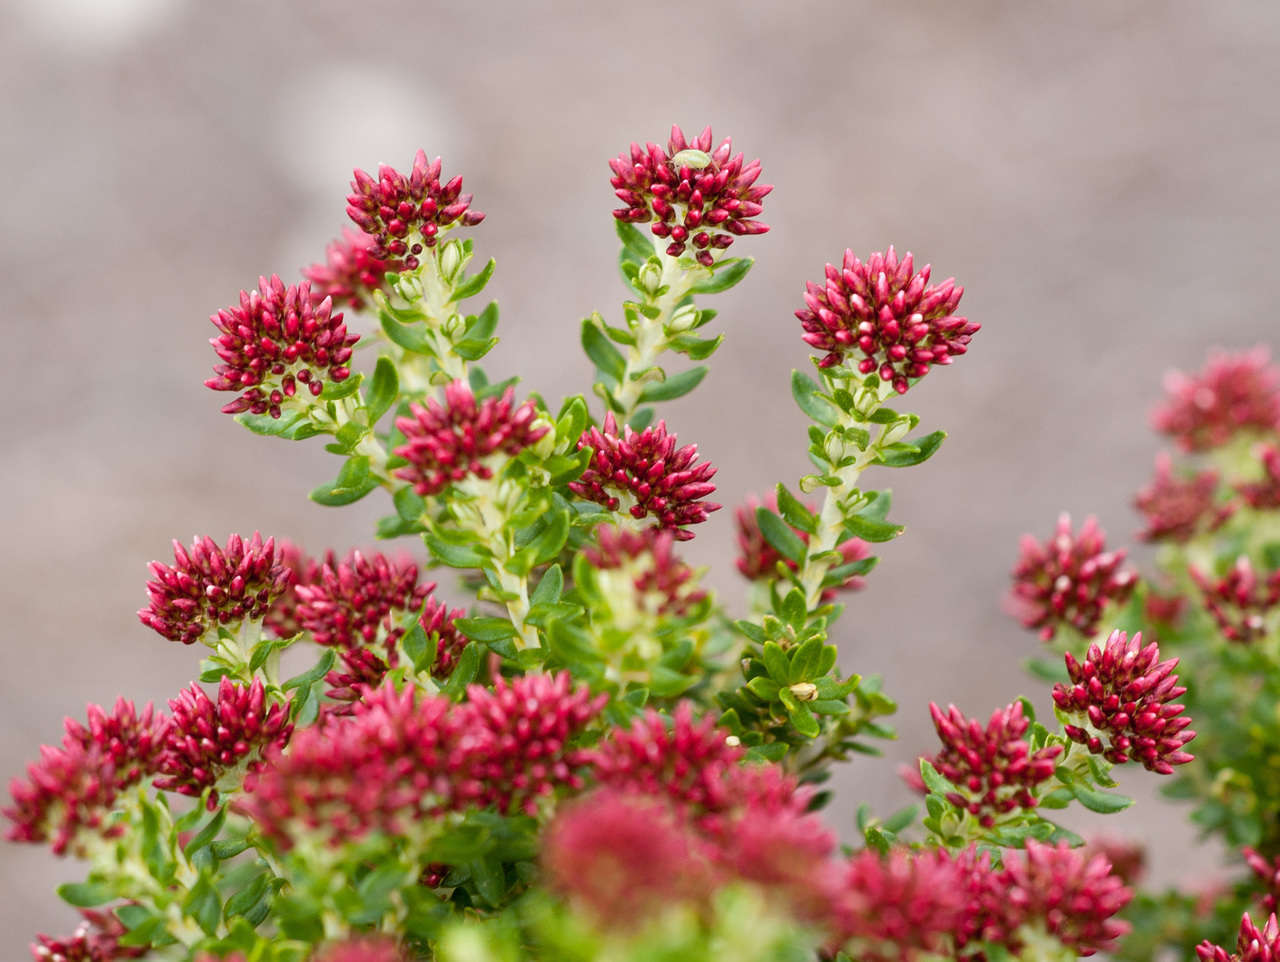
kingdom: Plantae
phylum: Tracheophyta
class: Magnoliopsida
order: Asterales
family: Asteraceae
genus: Ozothamnus
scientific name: Ozothamnus alpinus
